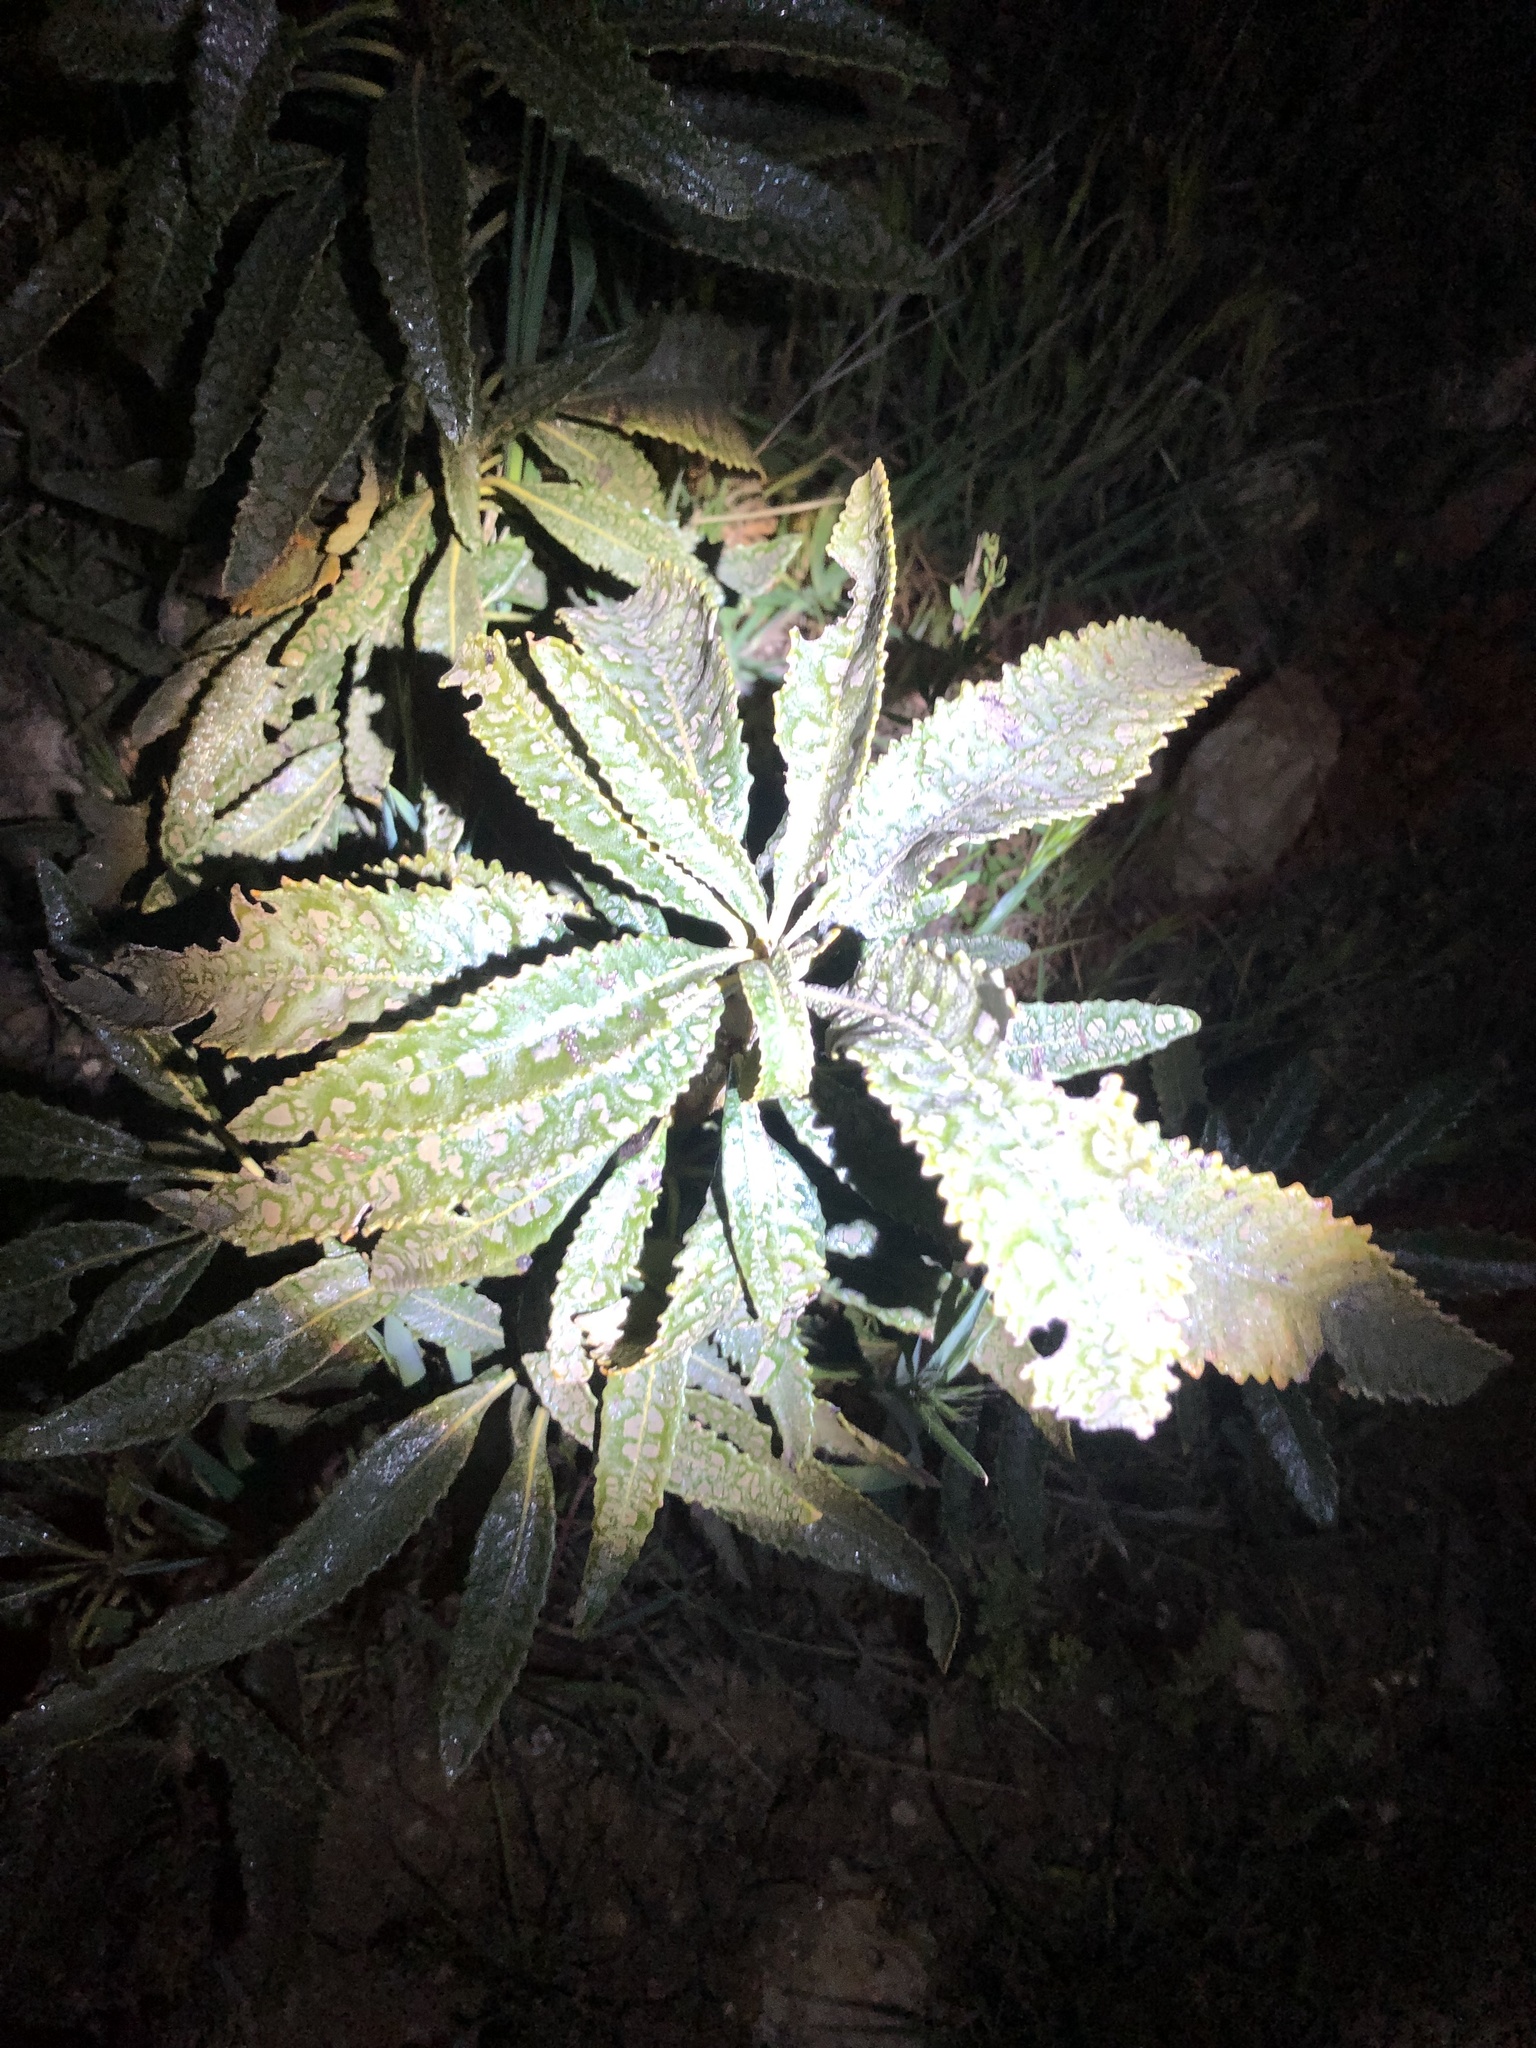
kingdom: Plantae
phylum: Tracheophyta
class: Magnoliopsida
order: Boraginales
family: Namaceae
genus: Eriodictyon
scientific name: Eriodictyon trichocalyx
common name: Hairy yerba-santa
